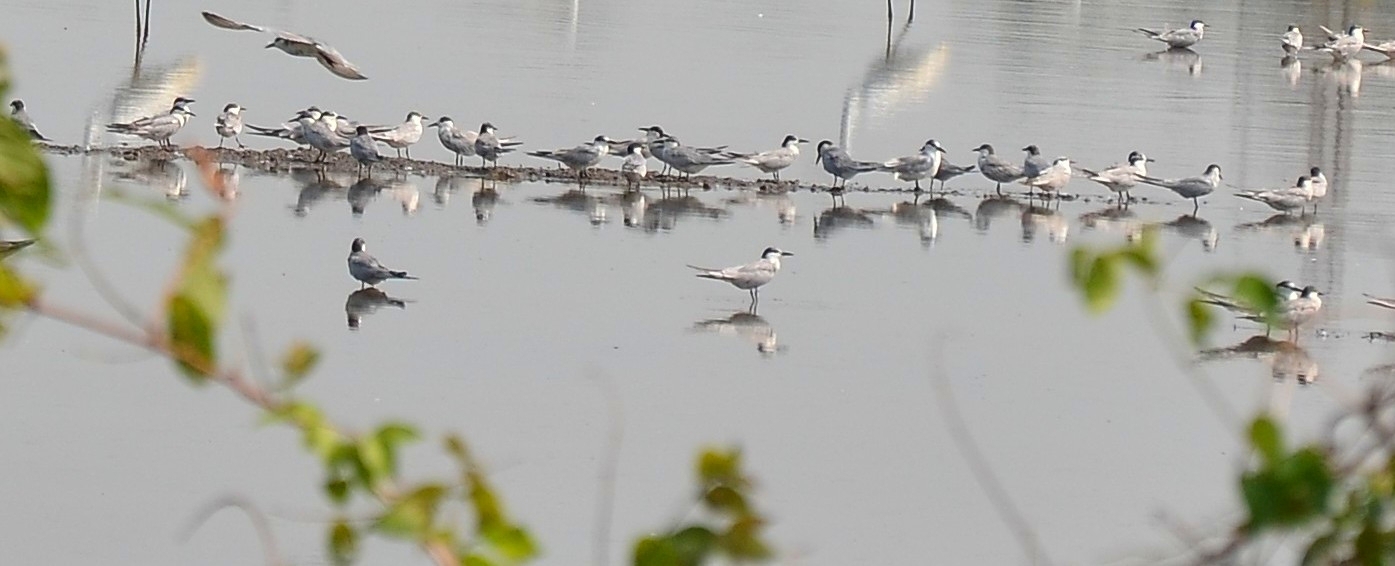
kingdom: Animalia
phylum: Chordata
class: Aves
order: Charadriiformes
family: Laridae
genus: Chlidonias
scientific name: Chlidonias hybrida
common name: Whiskered tern
